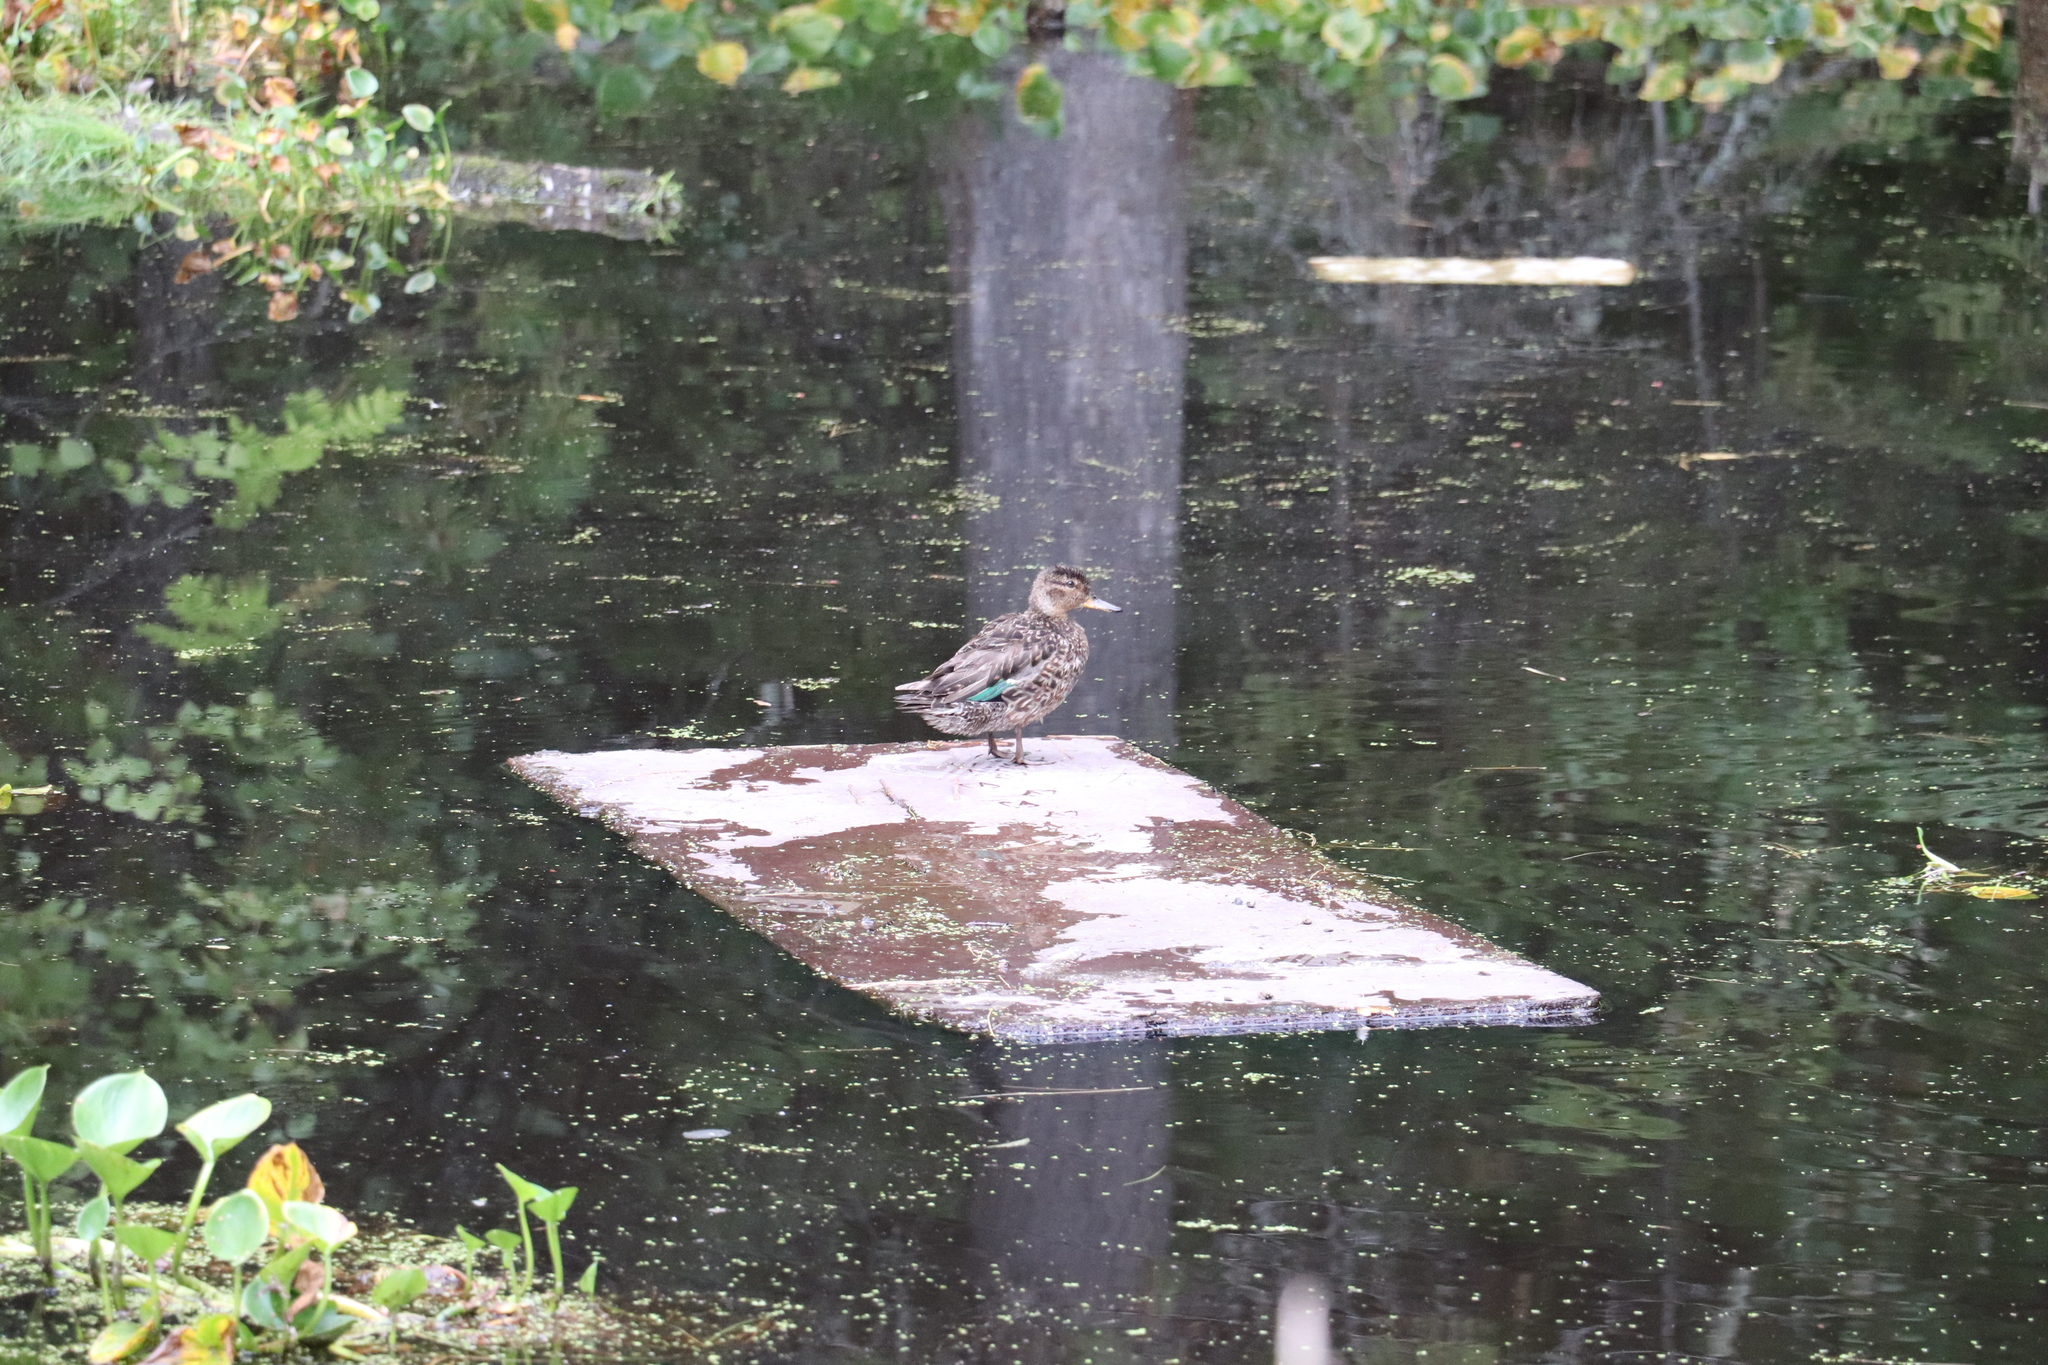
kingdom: Animalia
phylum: Chordata
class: Aves
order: Anseriformes
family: Anatidae
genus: Anas
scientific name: Anas crecca
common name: Eurasian teal
